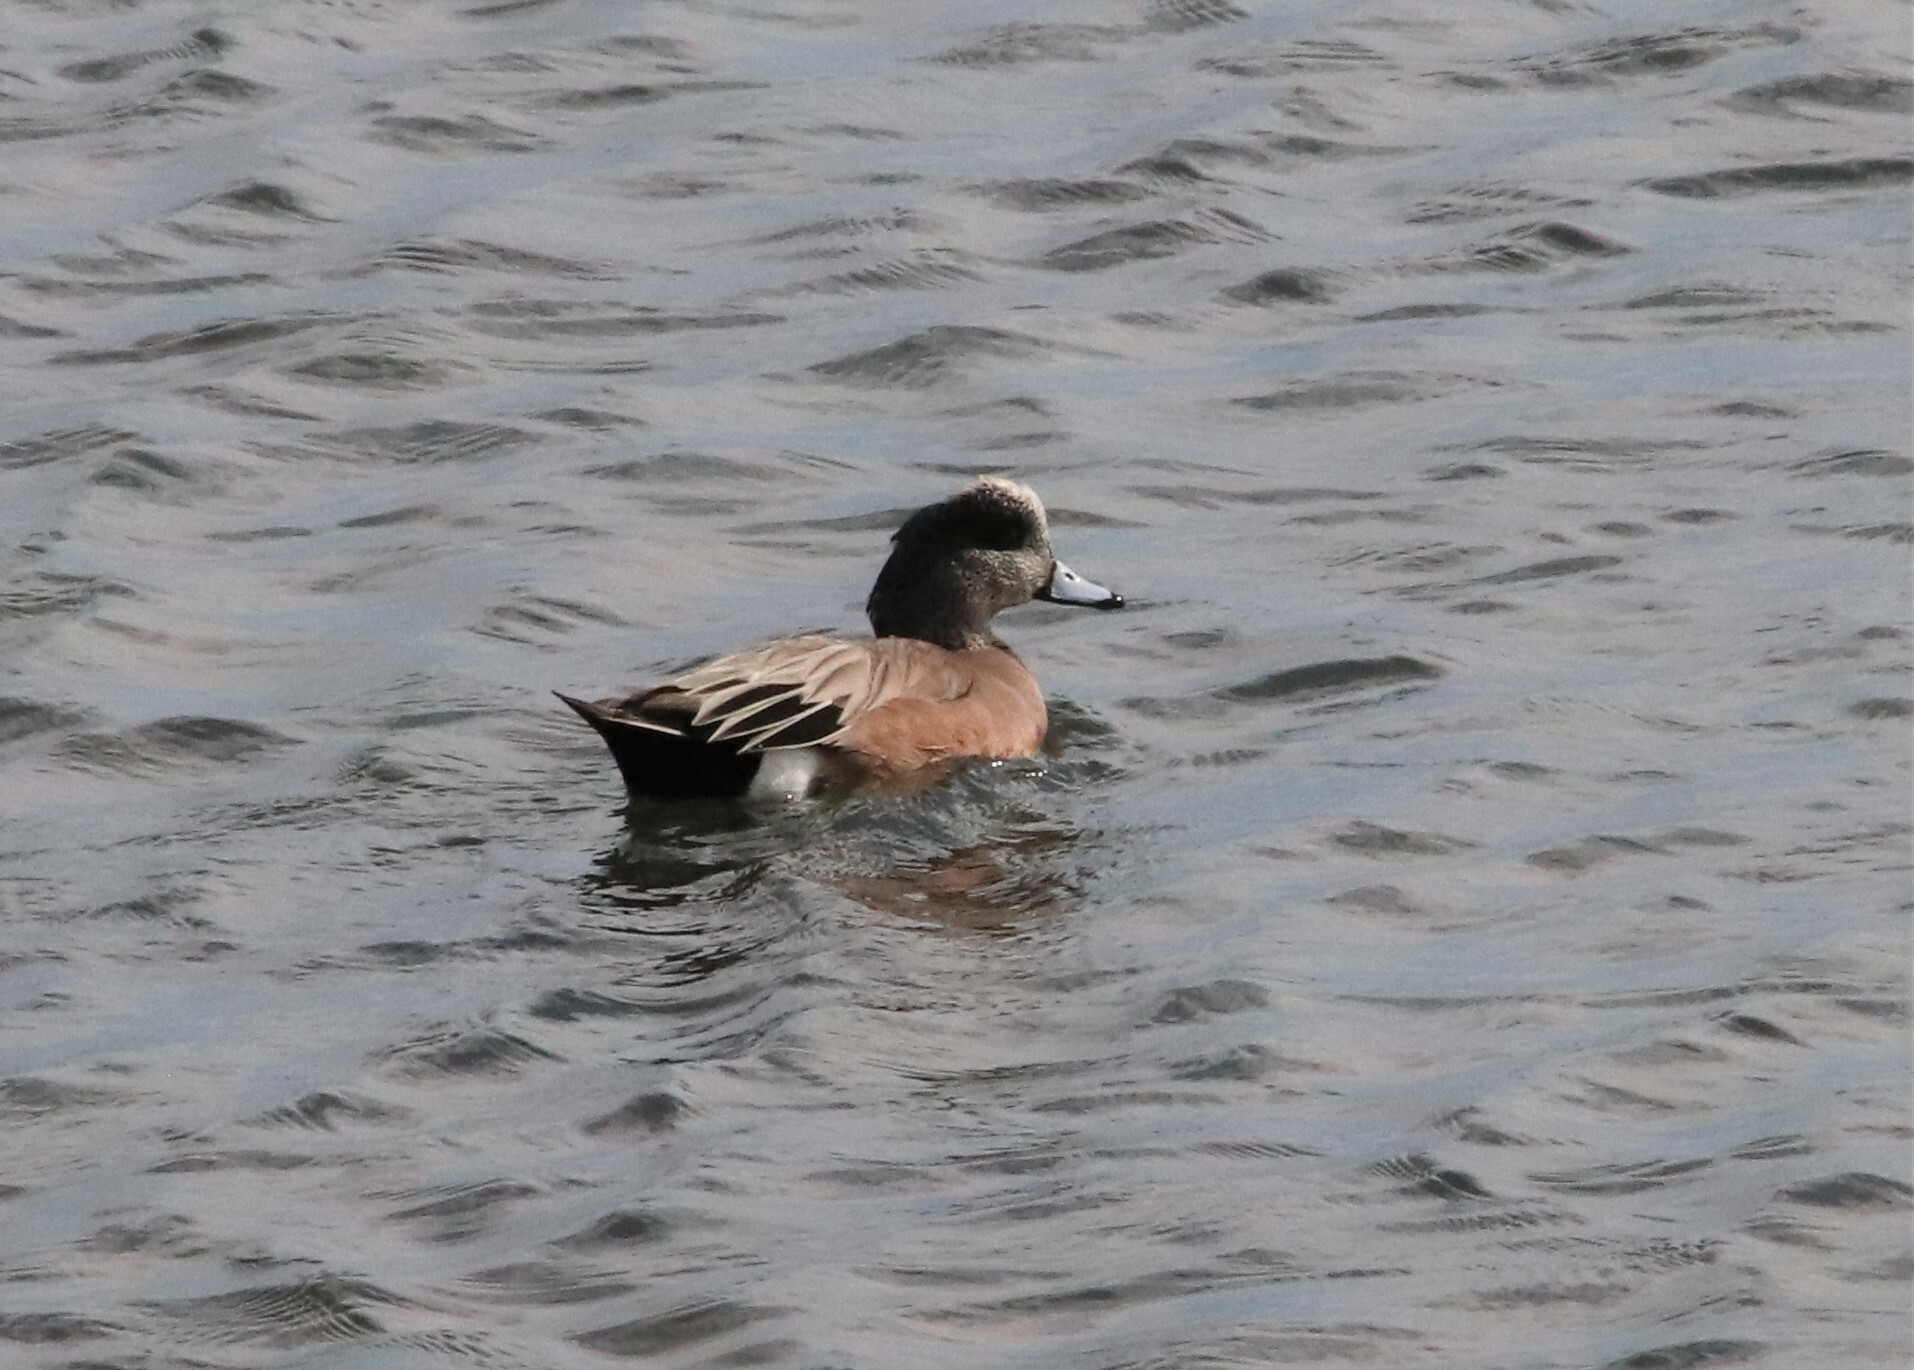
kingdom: Animalia
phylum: Chordata
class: Aves
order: Anseriformes
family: Anatidae
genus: Mareca
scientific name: Mareca americana
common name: American wigeon
